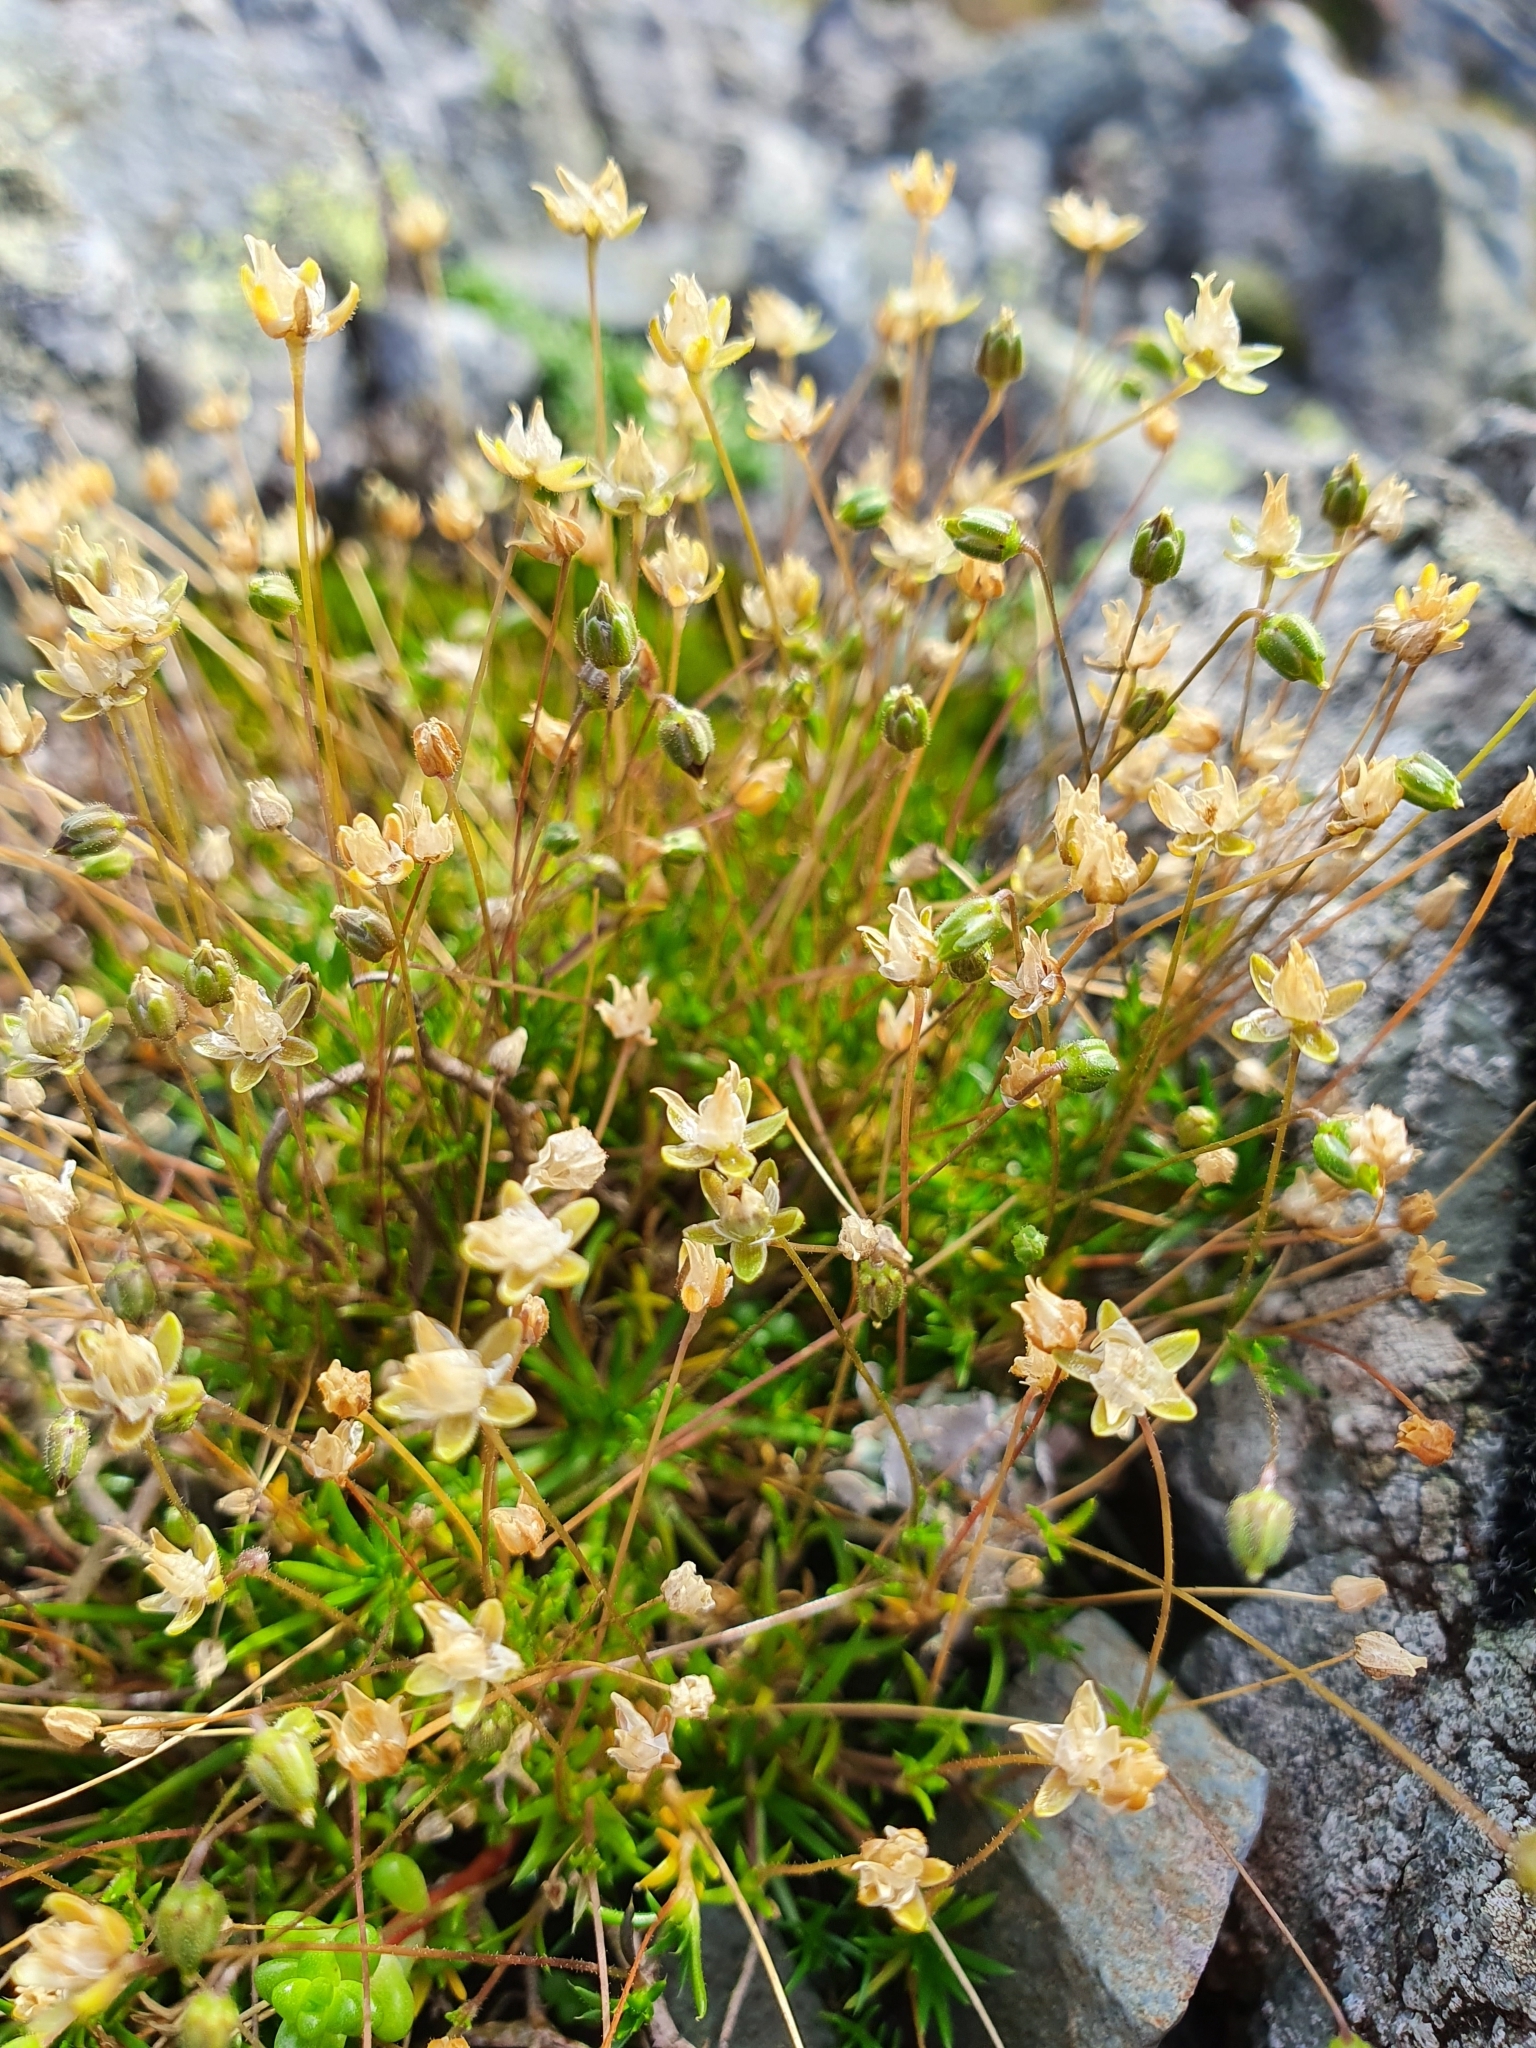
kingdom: Plantae
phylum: Tracheophyta
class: Magnoliopsida
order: Caryophyllales
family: Caryophyllaceae
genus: Sagina
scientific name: Sagina subulata
